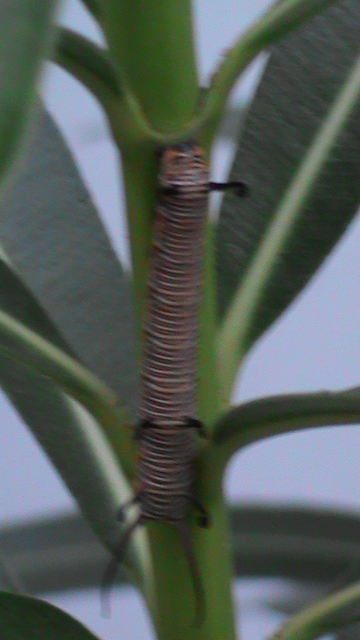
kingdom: Animalia
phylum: Arthropoda
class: Insecta
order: Lepidoptera
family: Nymphalidae
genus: Euploea
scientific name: Euploea core
